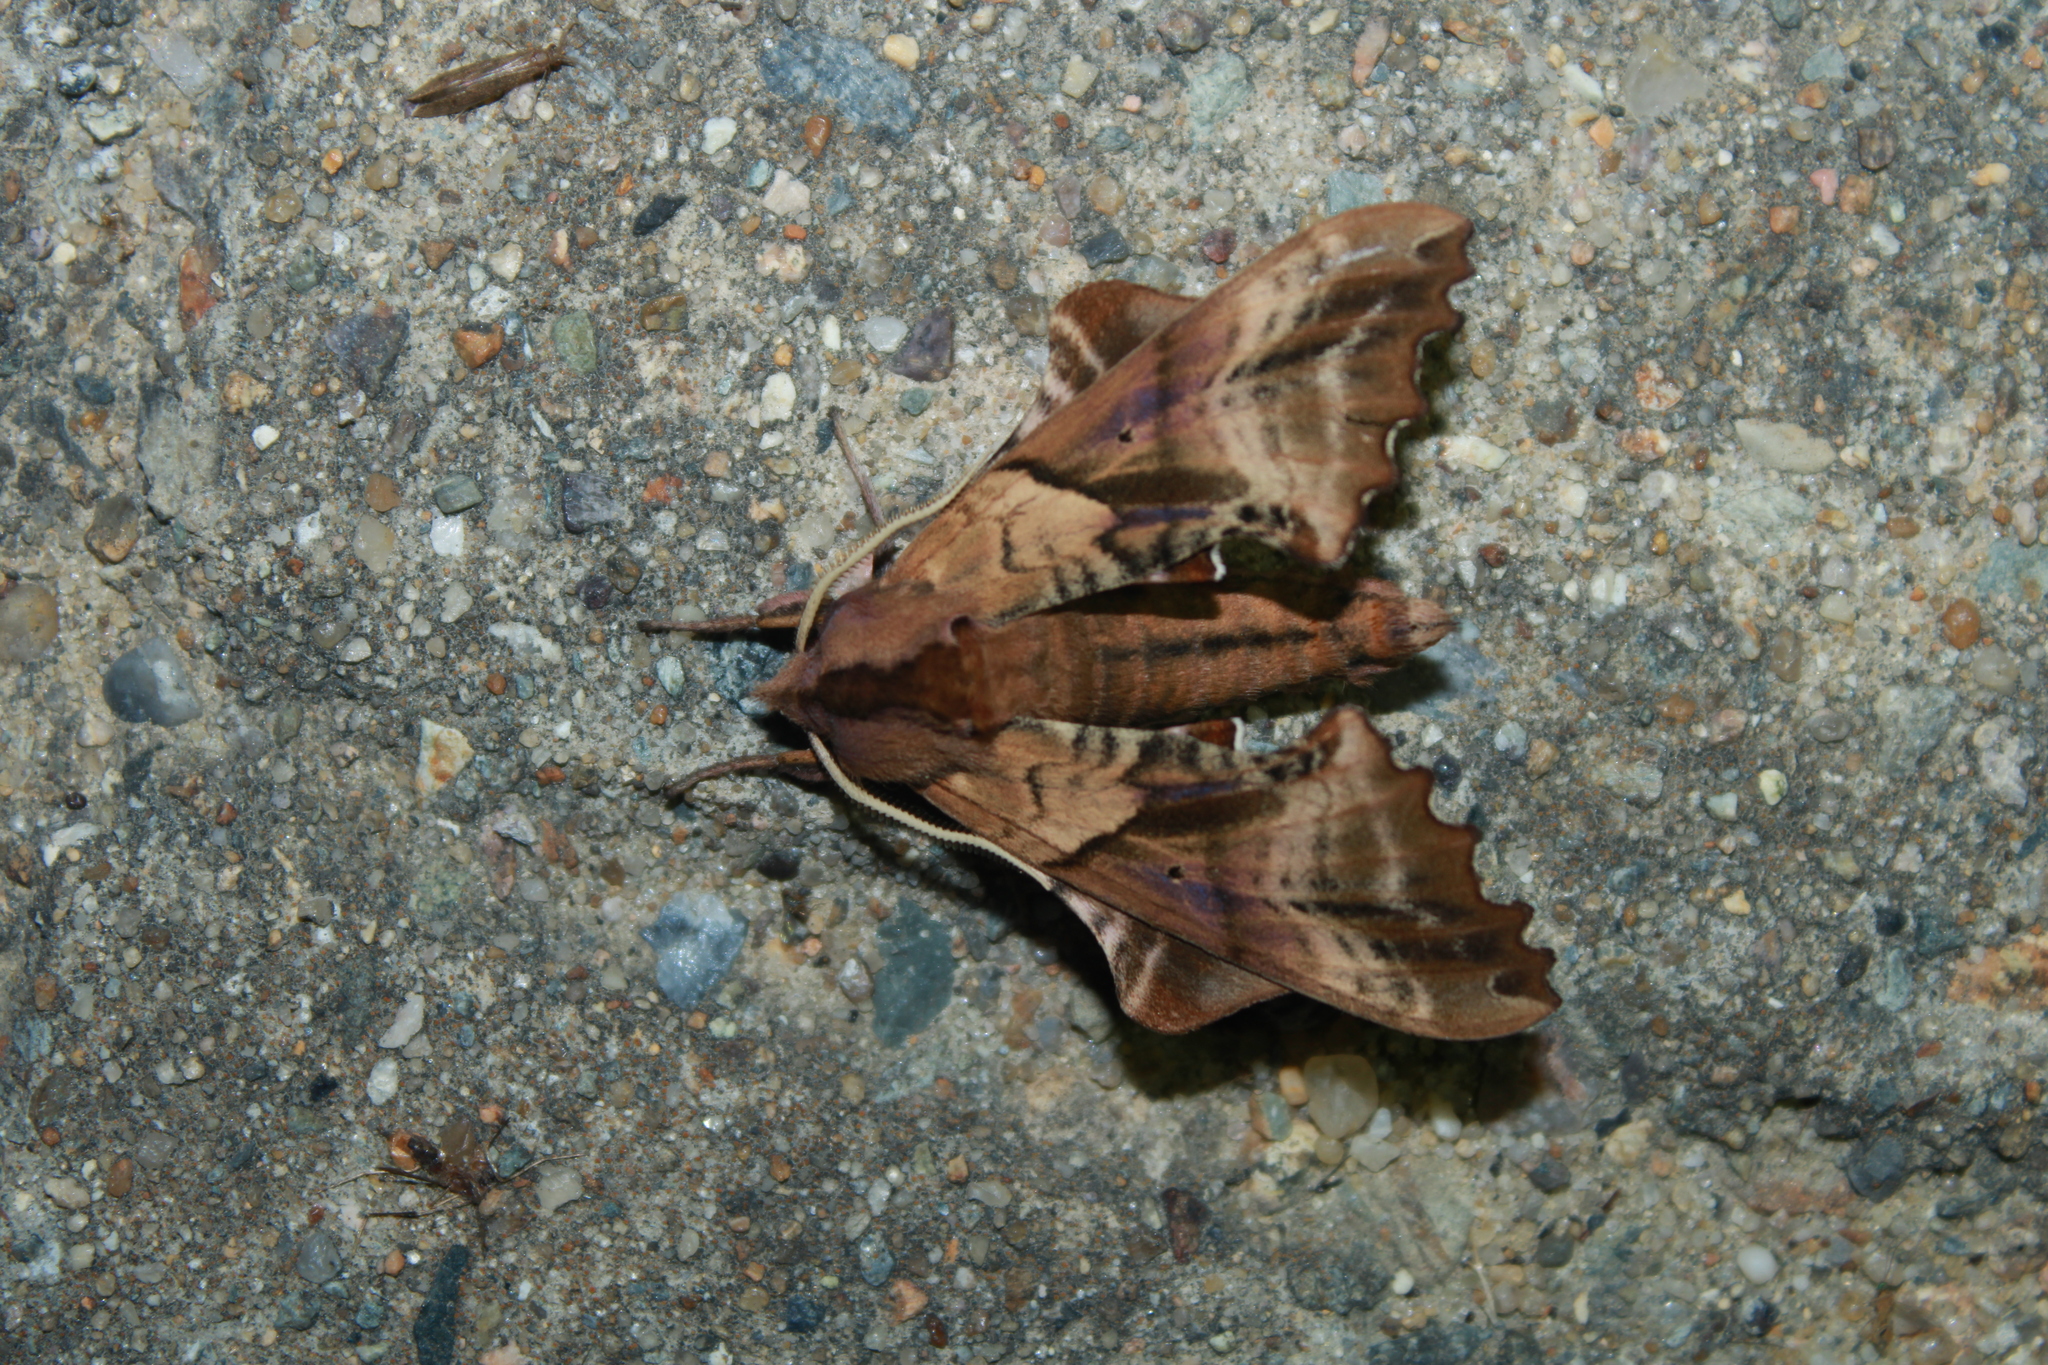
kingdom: Animalia
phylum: Arthropoda
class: Insecta
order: Lepidoptera
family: Sphingidae
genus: Paonias
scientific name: Paonias excaecata
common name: Blind-eyed sphinx
